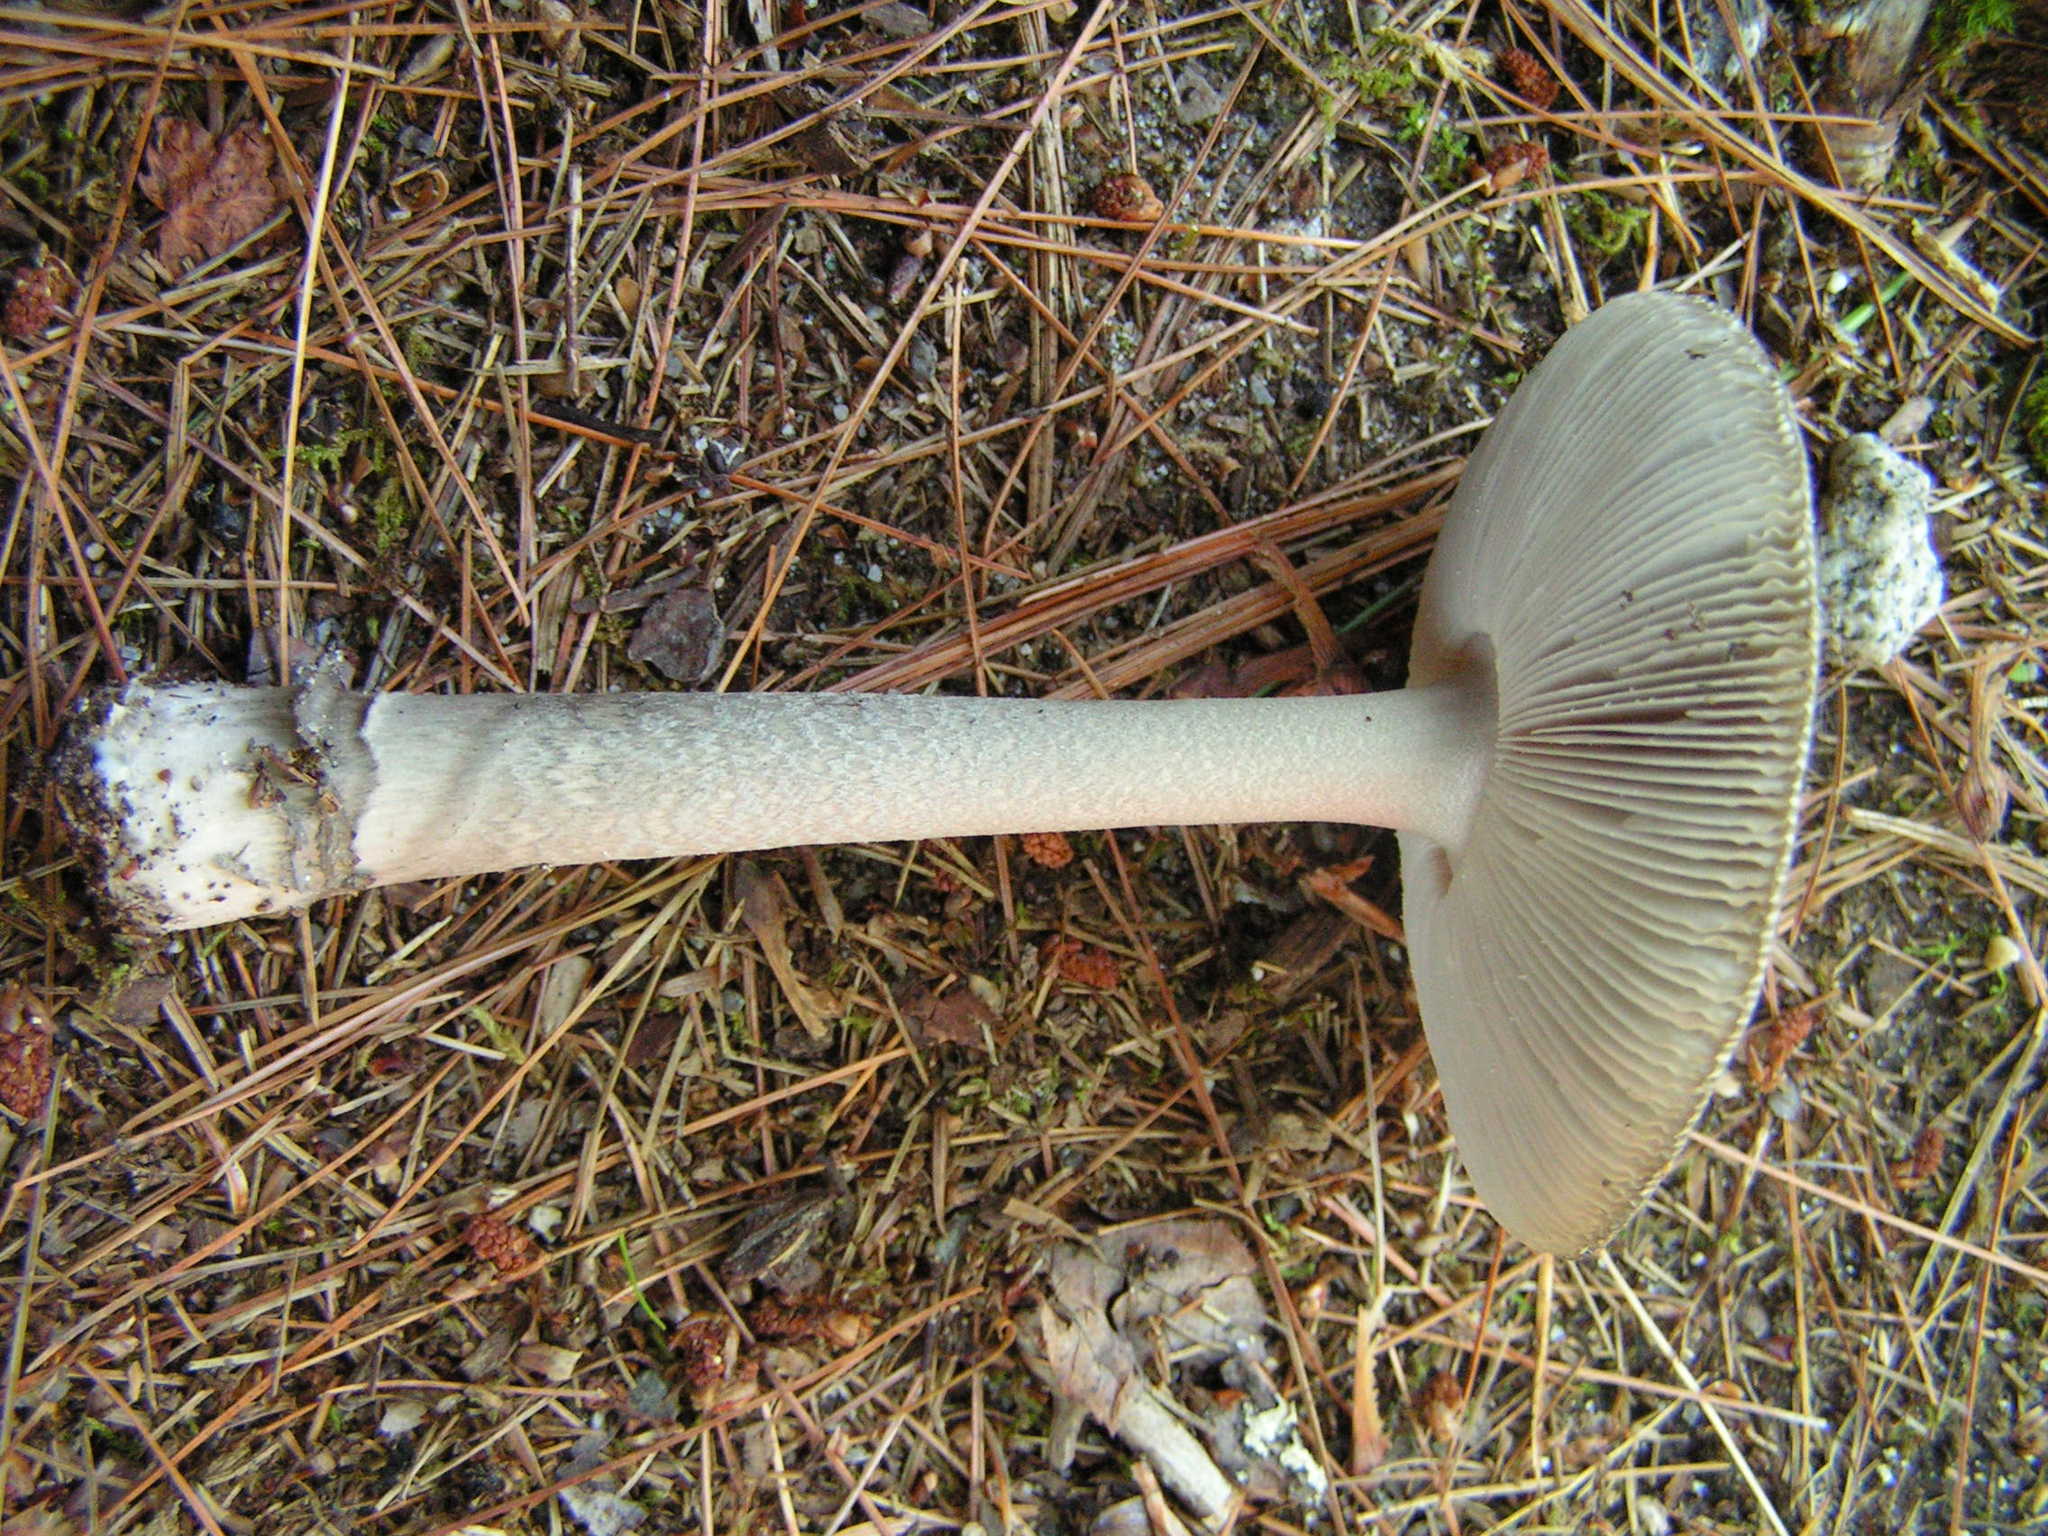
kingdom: Fungi
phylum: Basidiomycota
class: Agaricomycetes
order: Agaricales
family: Amanitaceae
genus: Amanita
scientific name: Amanita rhacopus
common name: Shaggy legged ringless amanita
